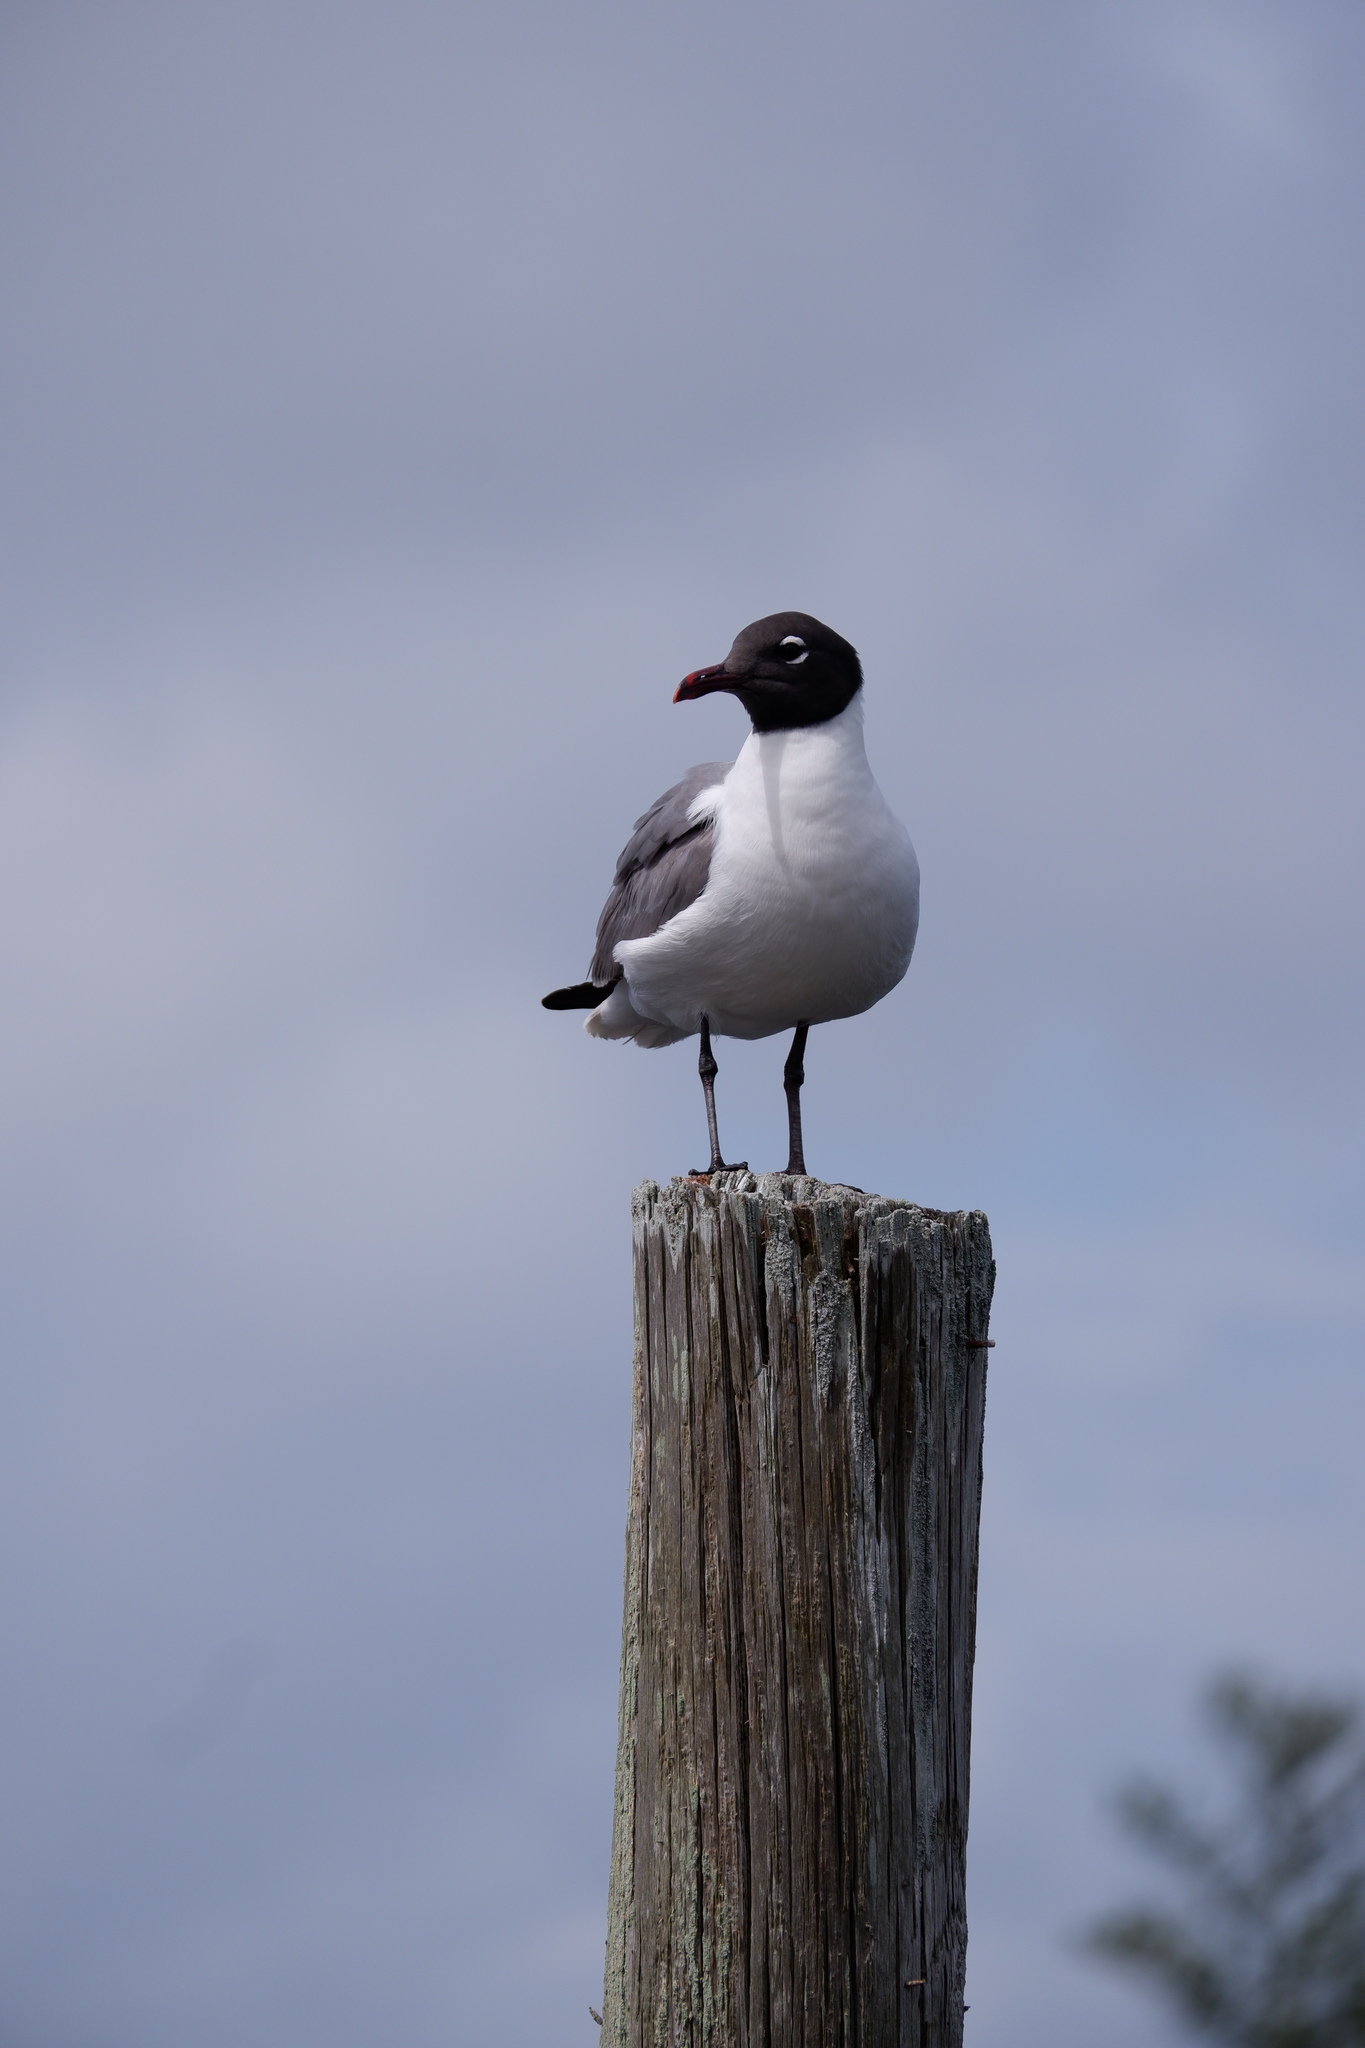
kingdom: Animalia
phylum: Chordata
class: Aves
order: Charadriiformes
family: Laridae
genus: Leucophaeus
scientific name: Leucophaeus atricilla
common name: Laughing gull
